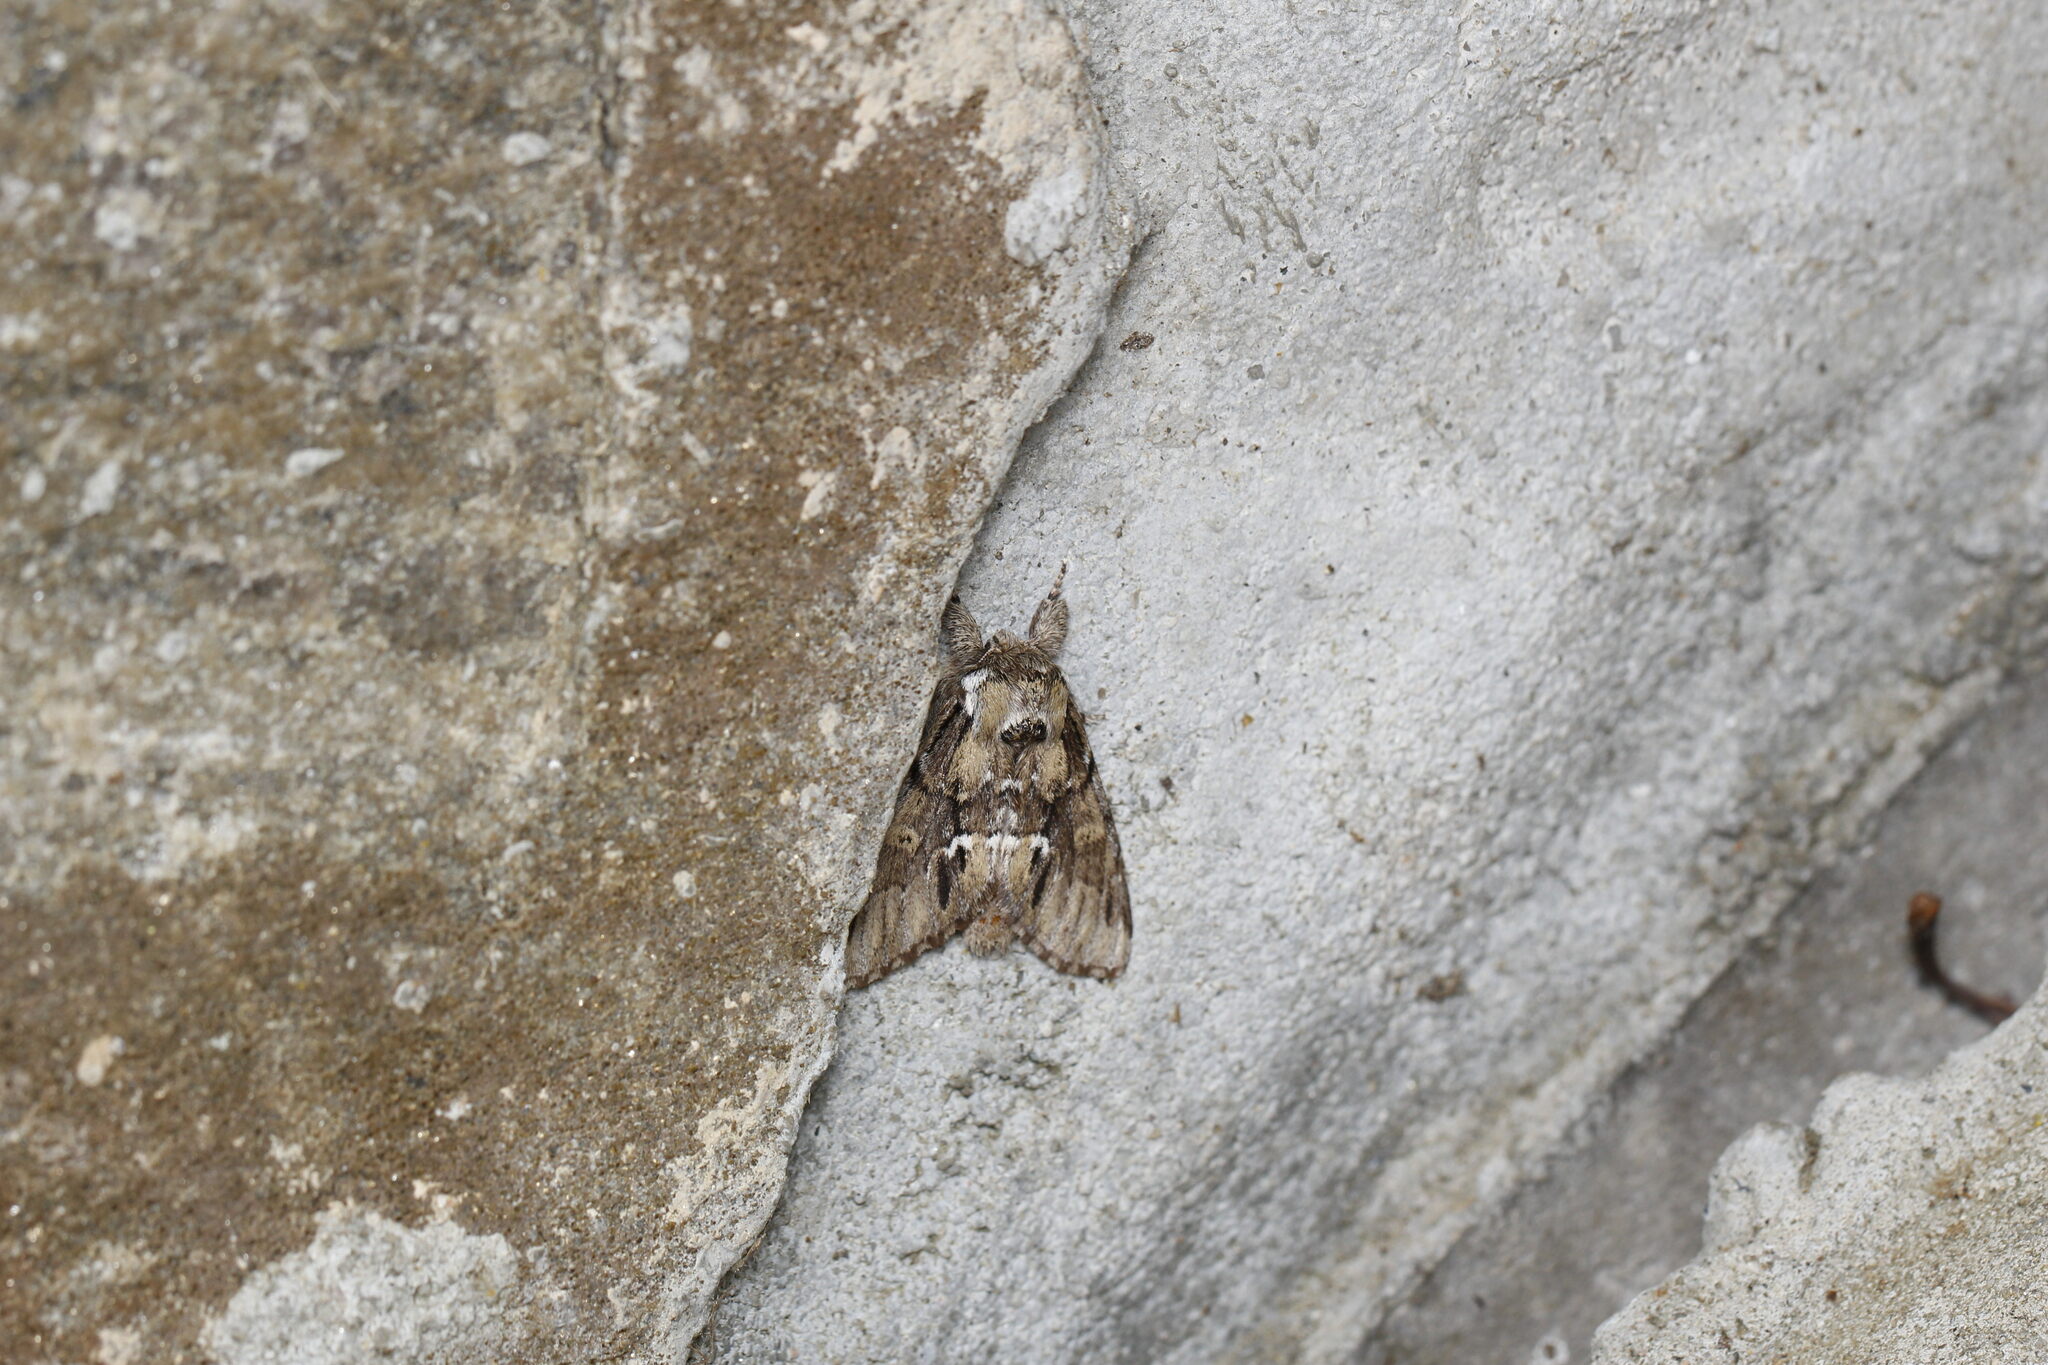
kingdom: Animalia
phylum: Arthropoda
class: Insecta
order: Lepidoptera
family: Notodontidae
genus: Paraeschra
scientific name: Paraeschra georgica
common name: Georgian prominent
